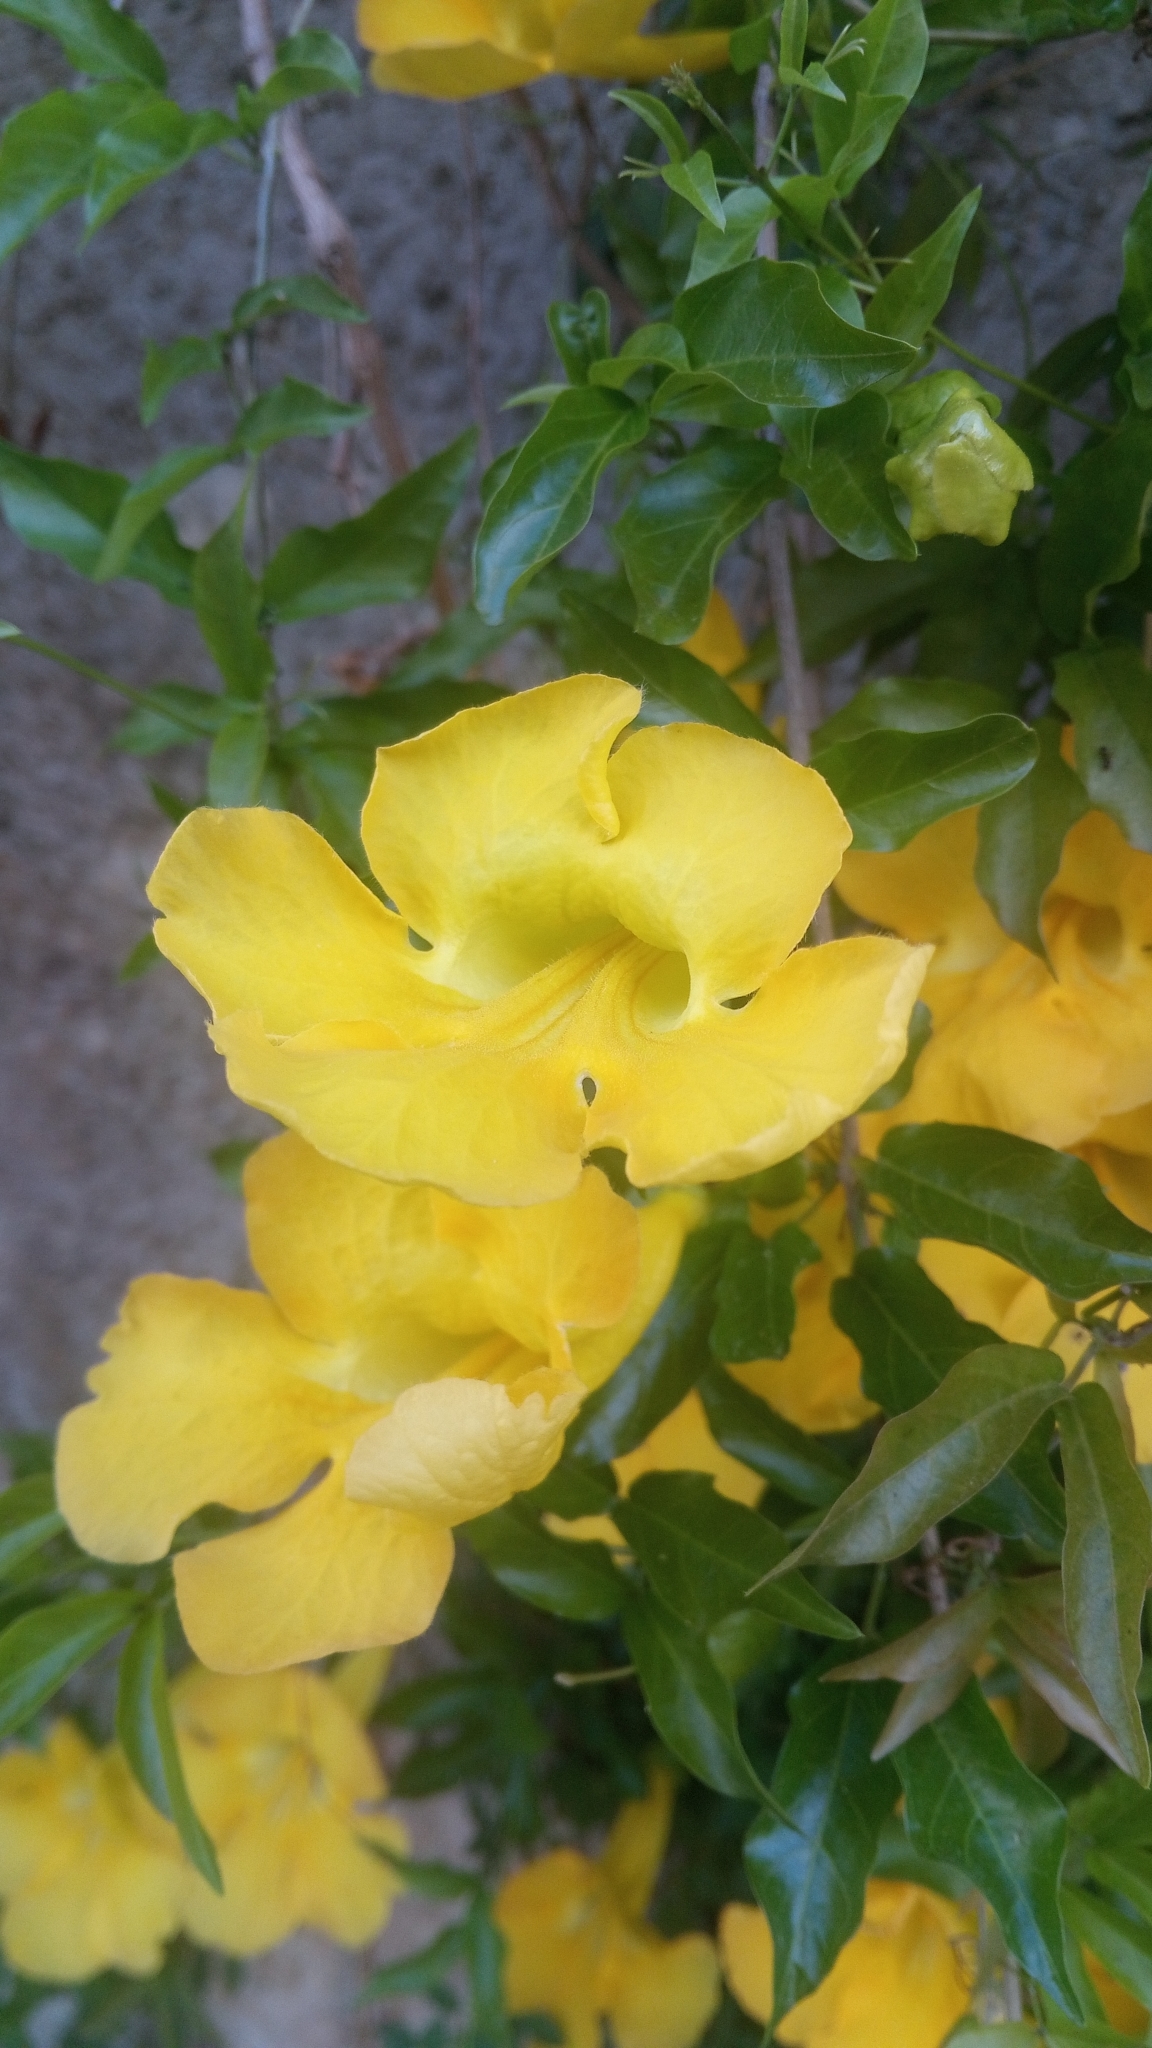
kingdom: Plantae
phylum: Tracheophyta
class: Magnoliopsida
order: Lamiales
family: Bignoniaceae
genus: Dolichandra
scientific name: Dolichandra unguis-cati
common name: Catclaw vine
